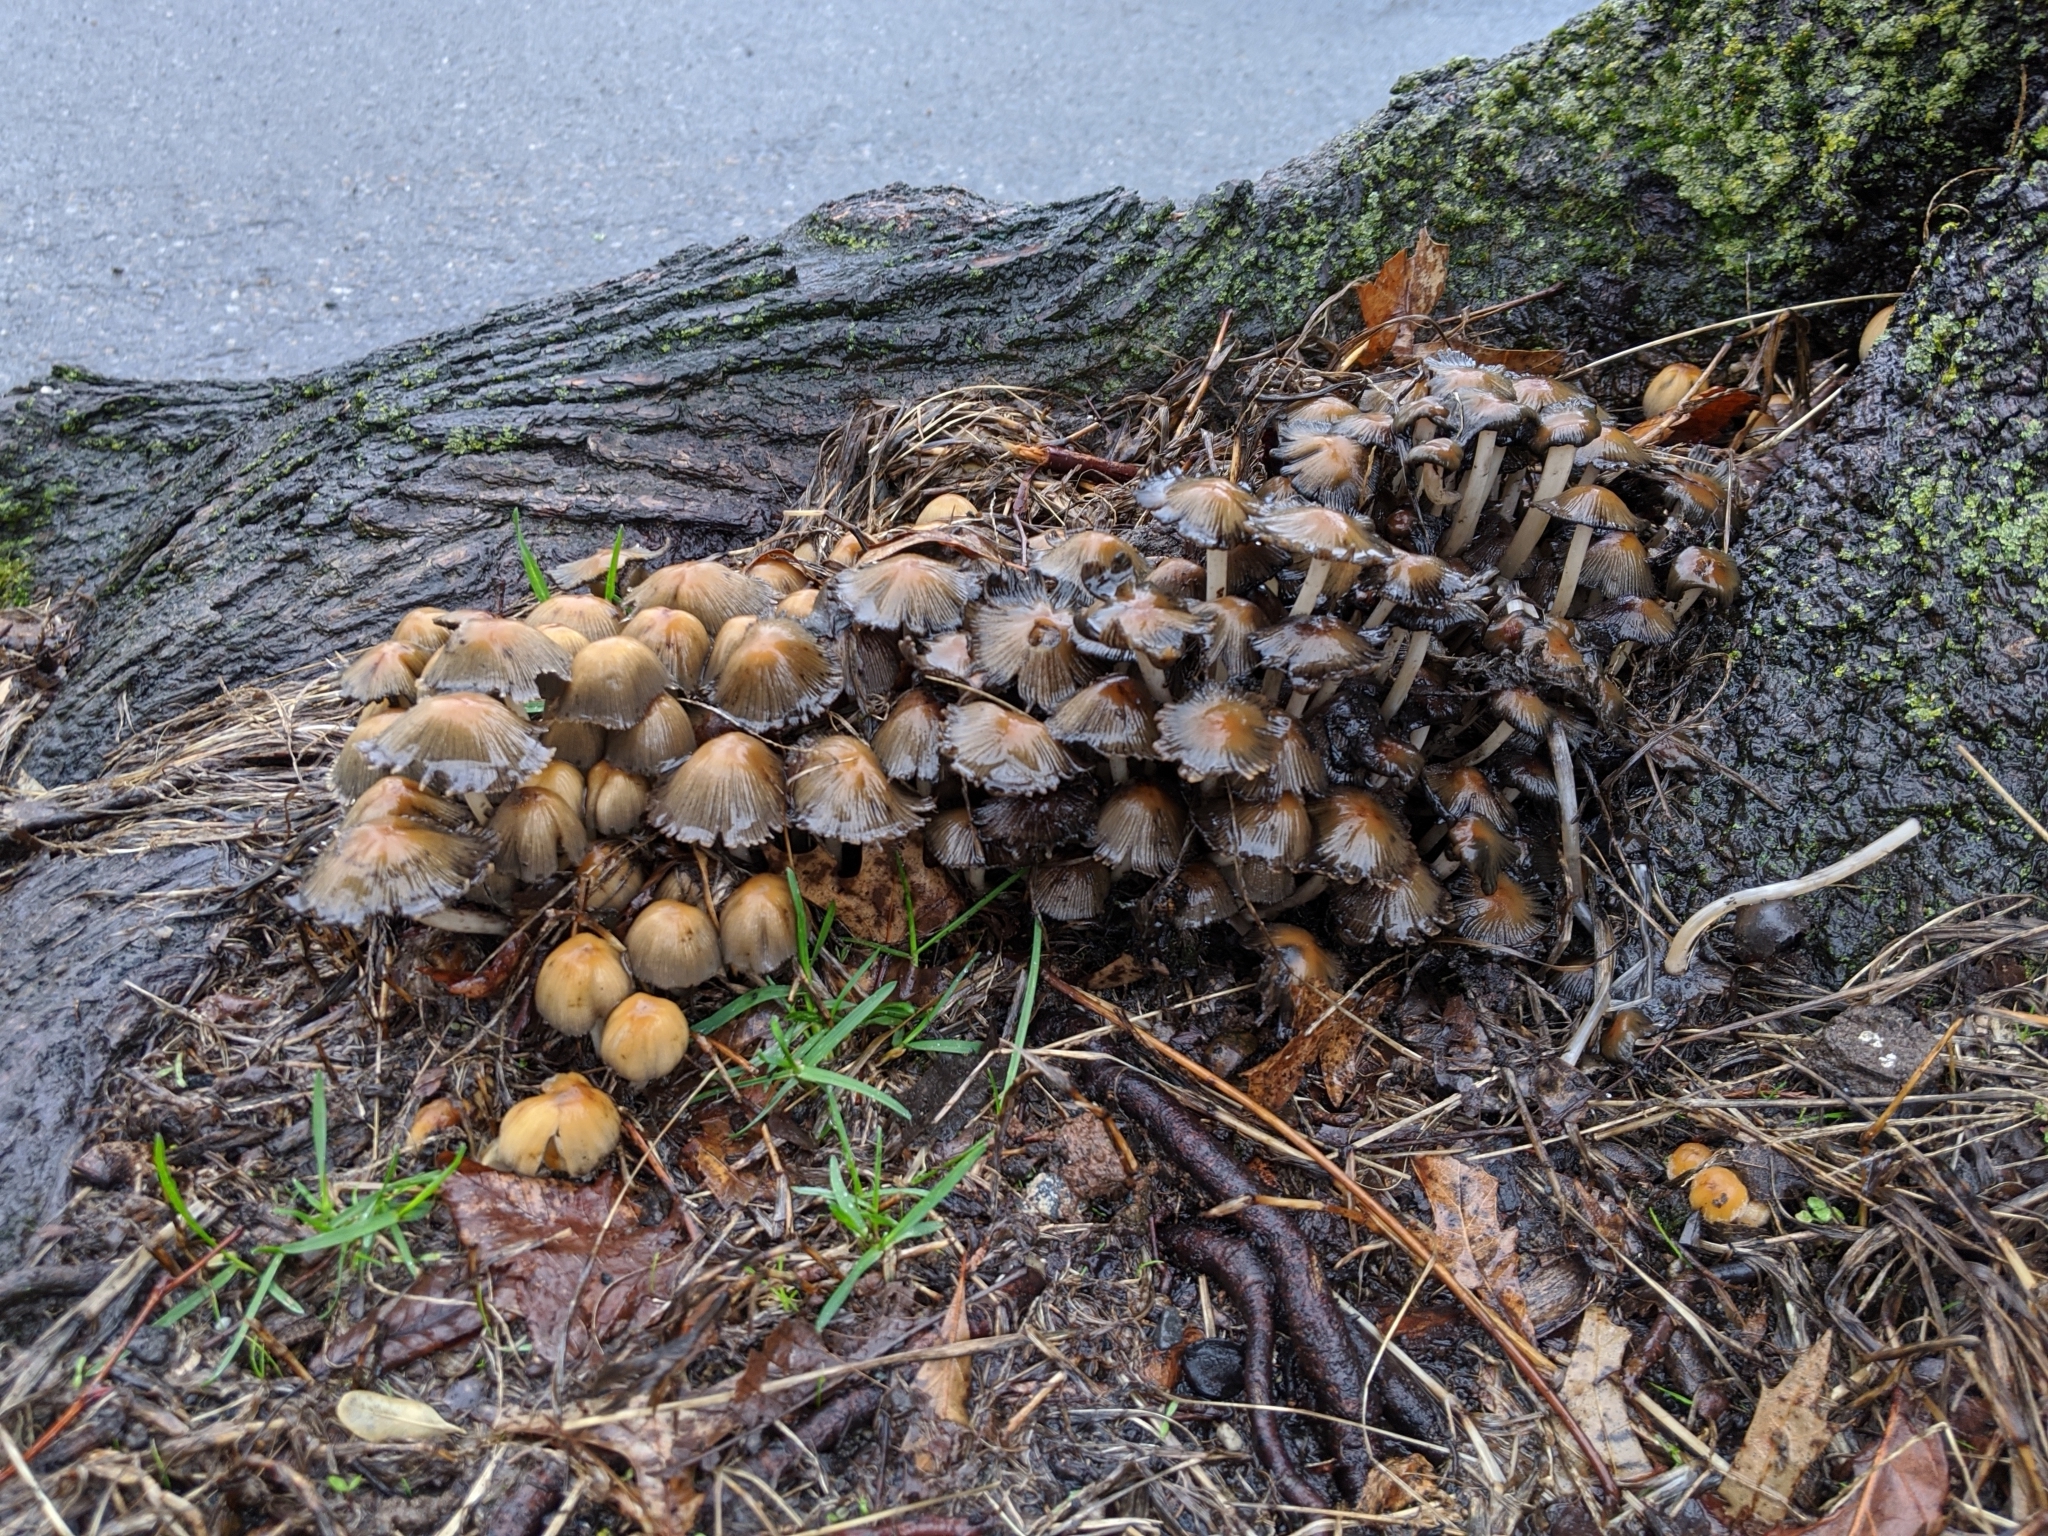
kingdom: Fungi
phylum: Basidiomycota
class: Agaricomycetes
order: Agaricales
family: Psathyrellaceae
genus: Coprinellus
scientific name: Coprinellus
